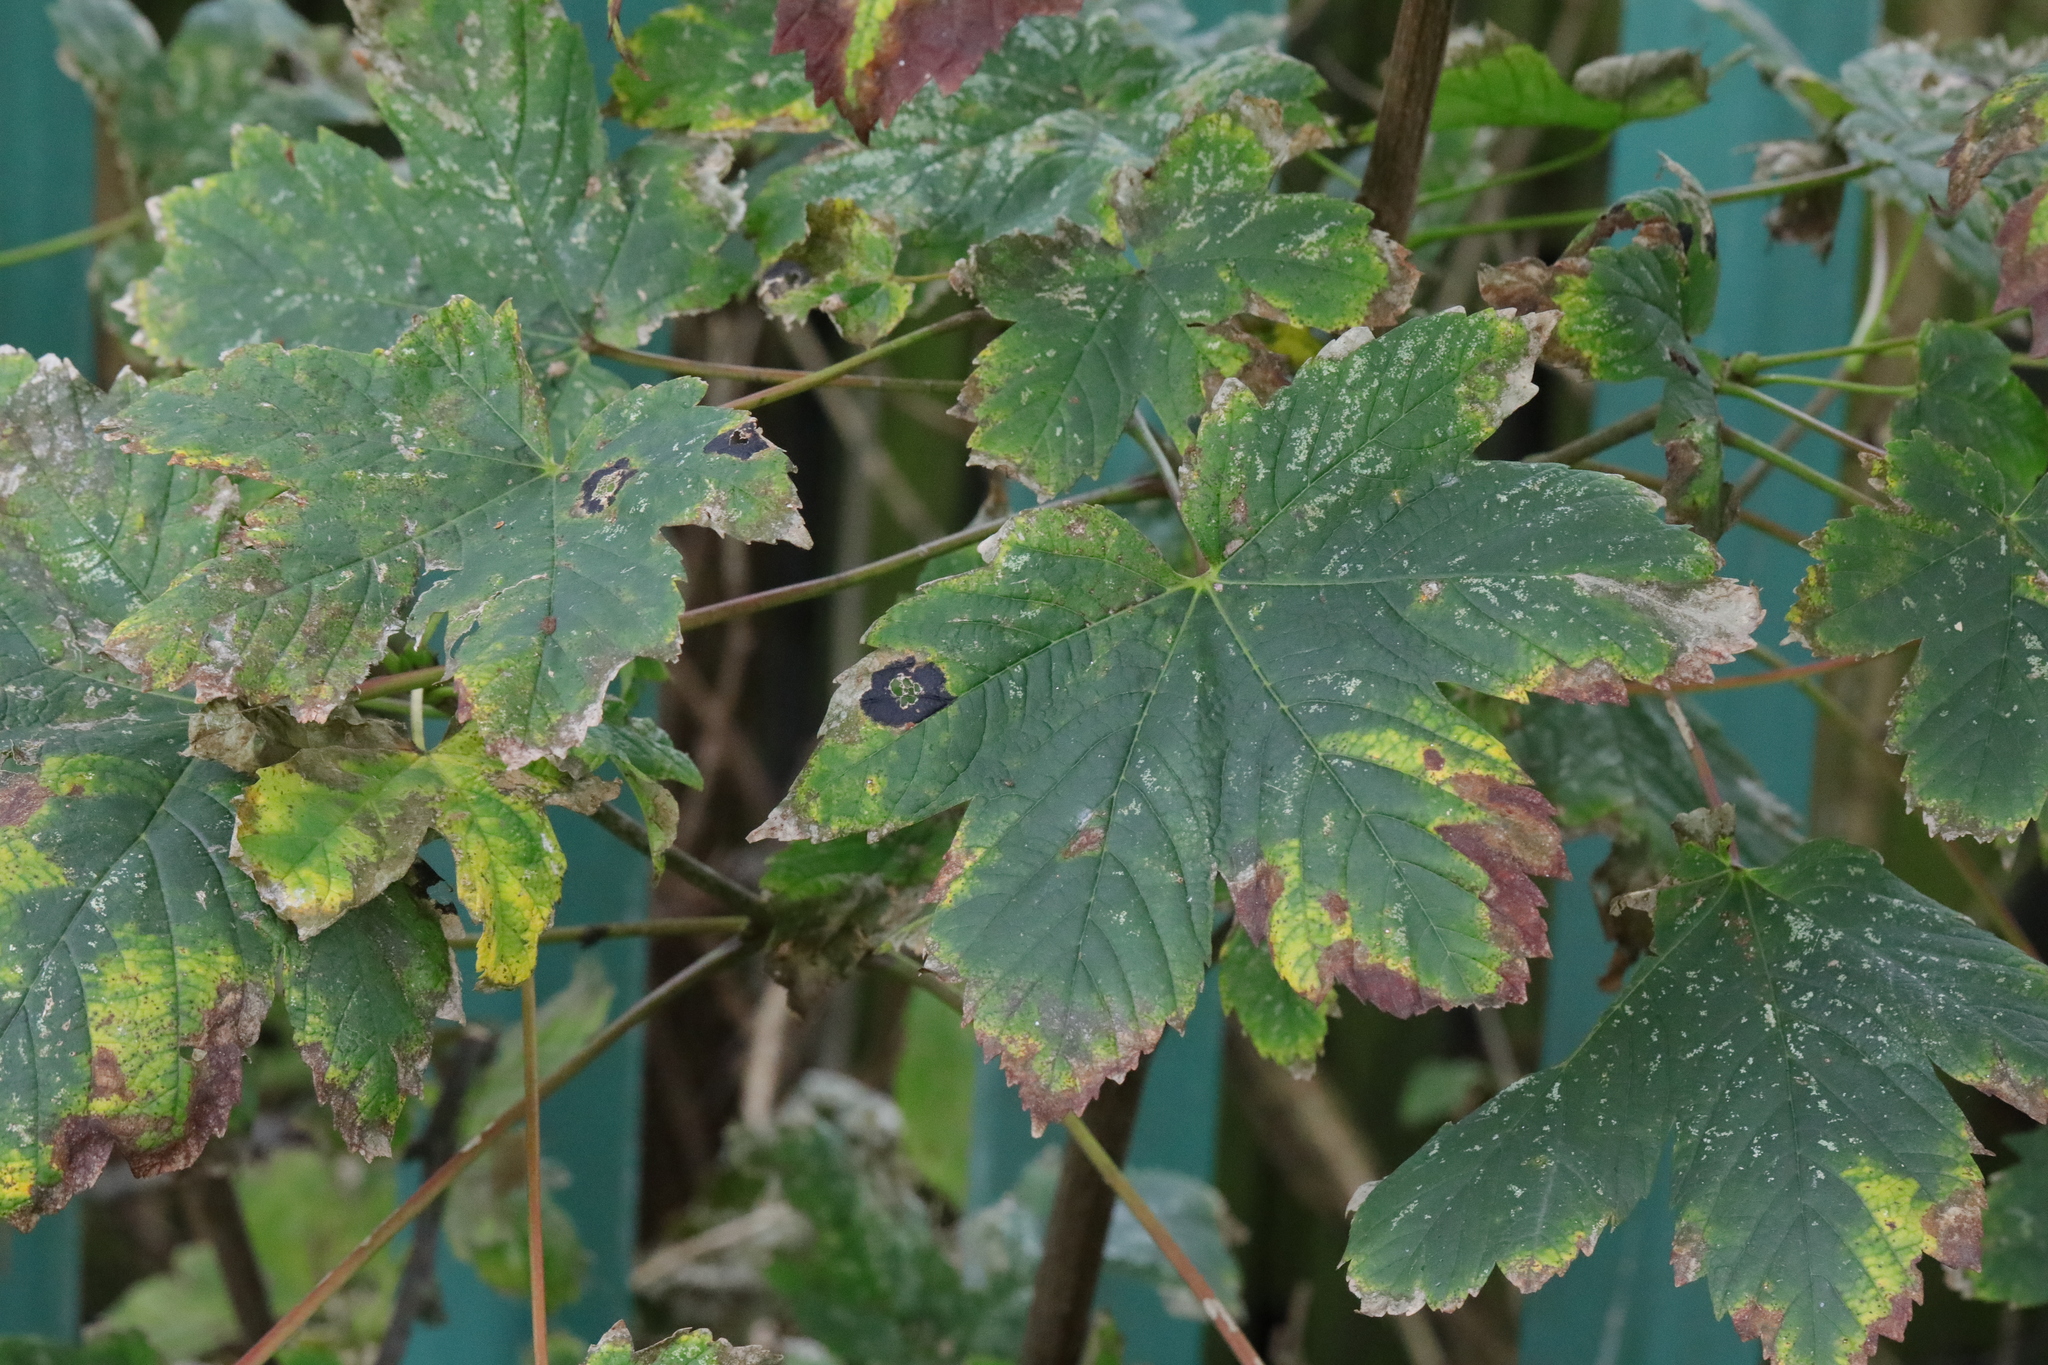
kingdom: Plantae
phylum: Tracheophyta
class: Magnoliopsida
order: Sapindales
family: Sapindaceae
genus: Acer
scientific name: Acer pseudoplatanus
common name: Sycamore
